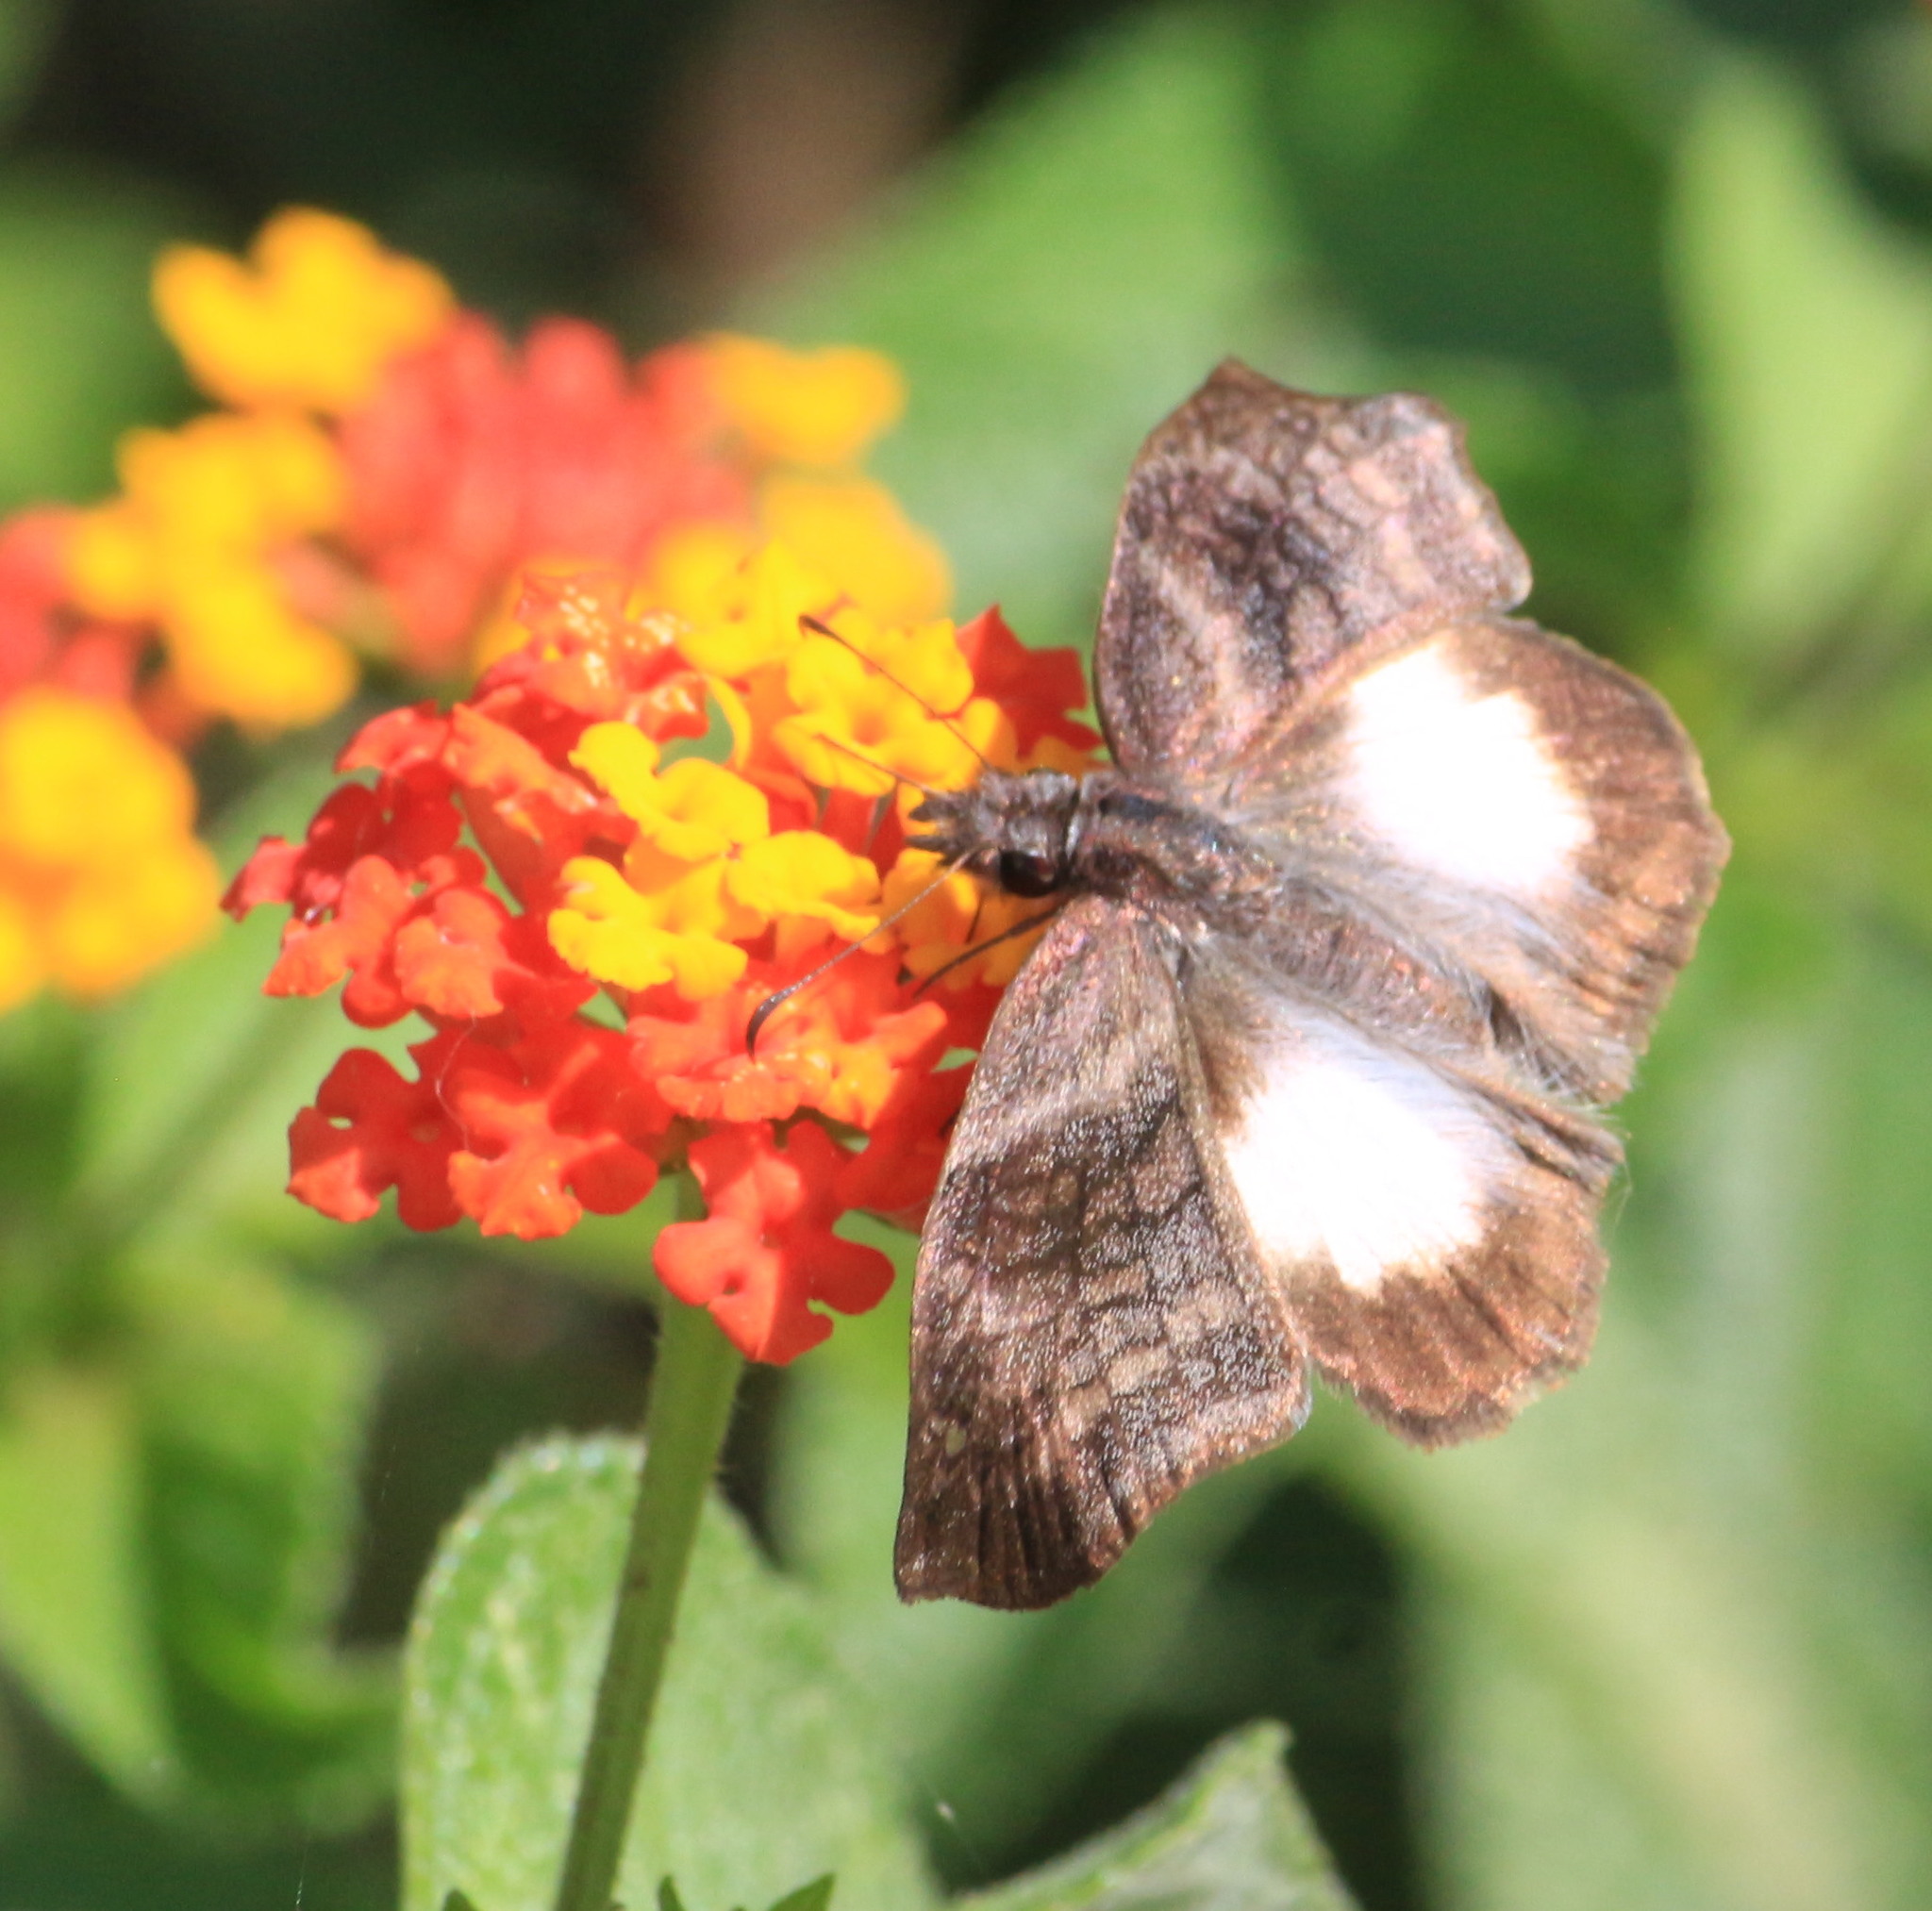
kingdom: Animalia
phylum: Arthropoda
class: Insecta
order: Lepidoptera
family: Hesperiidae
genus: Theagenes
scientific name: Theagenes
